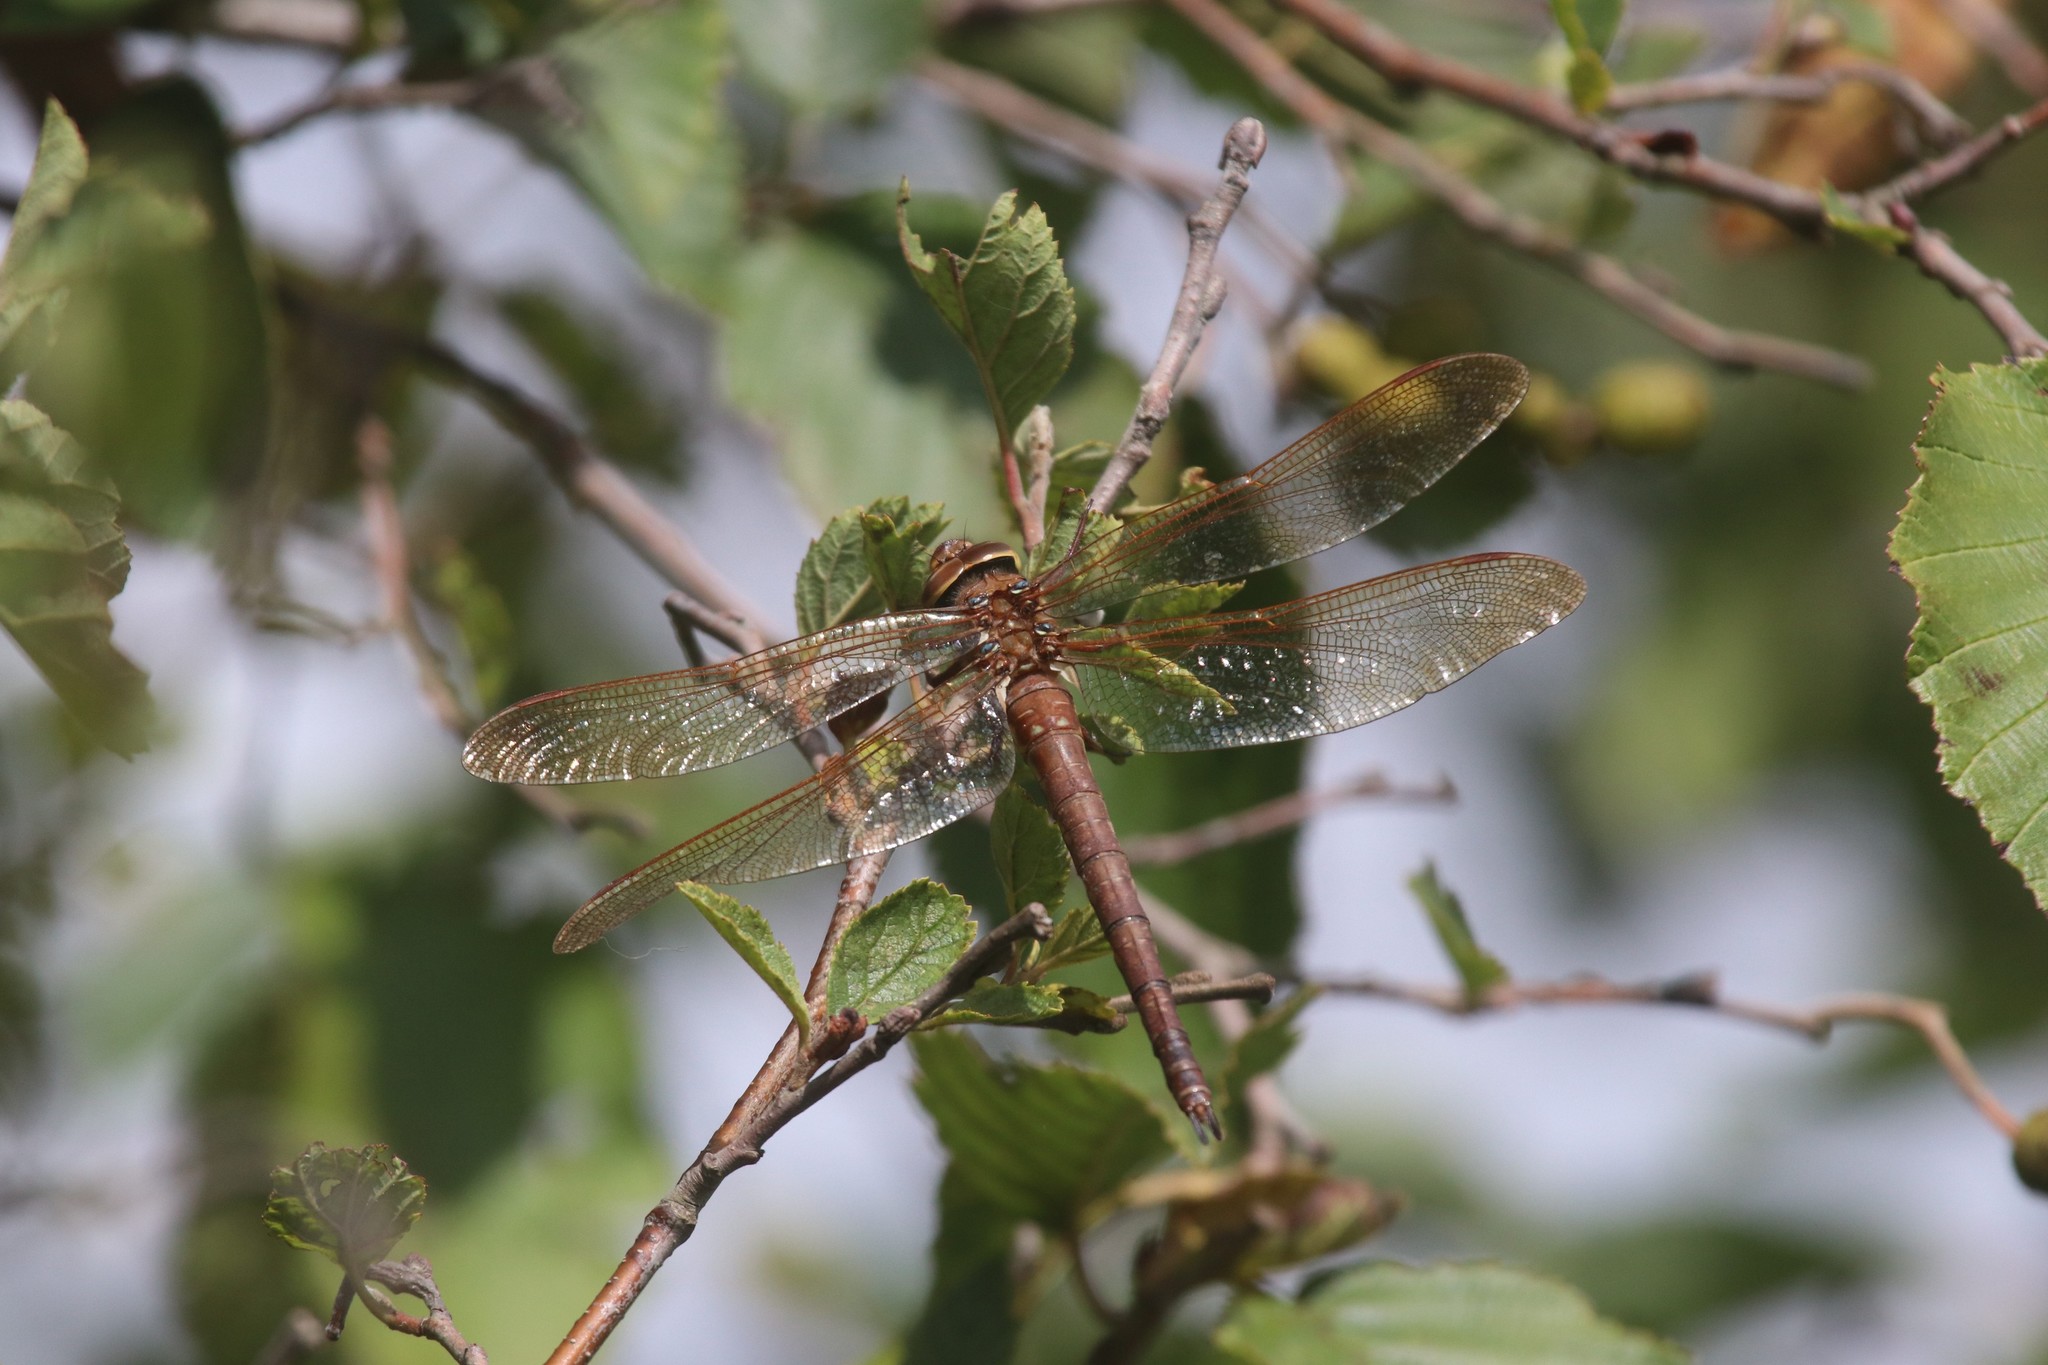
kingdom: Animalia
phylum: Arthropoda
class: Insecta
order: Odonata
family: Aeshnidae
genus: Aeshna
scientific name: Aeshna grandis
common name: Brown hawker
